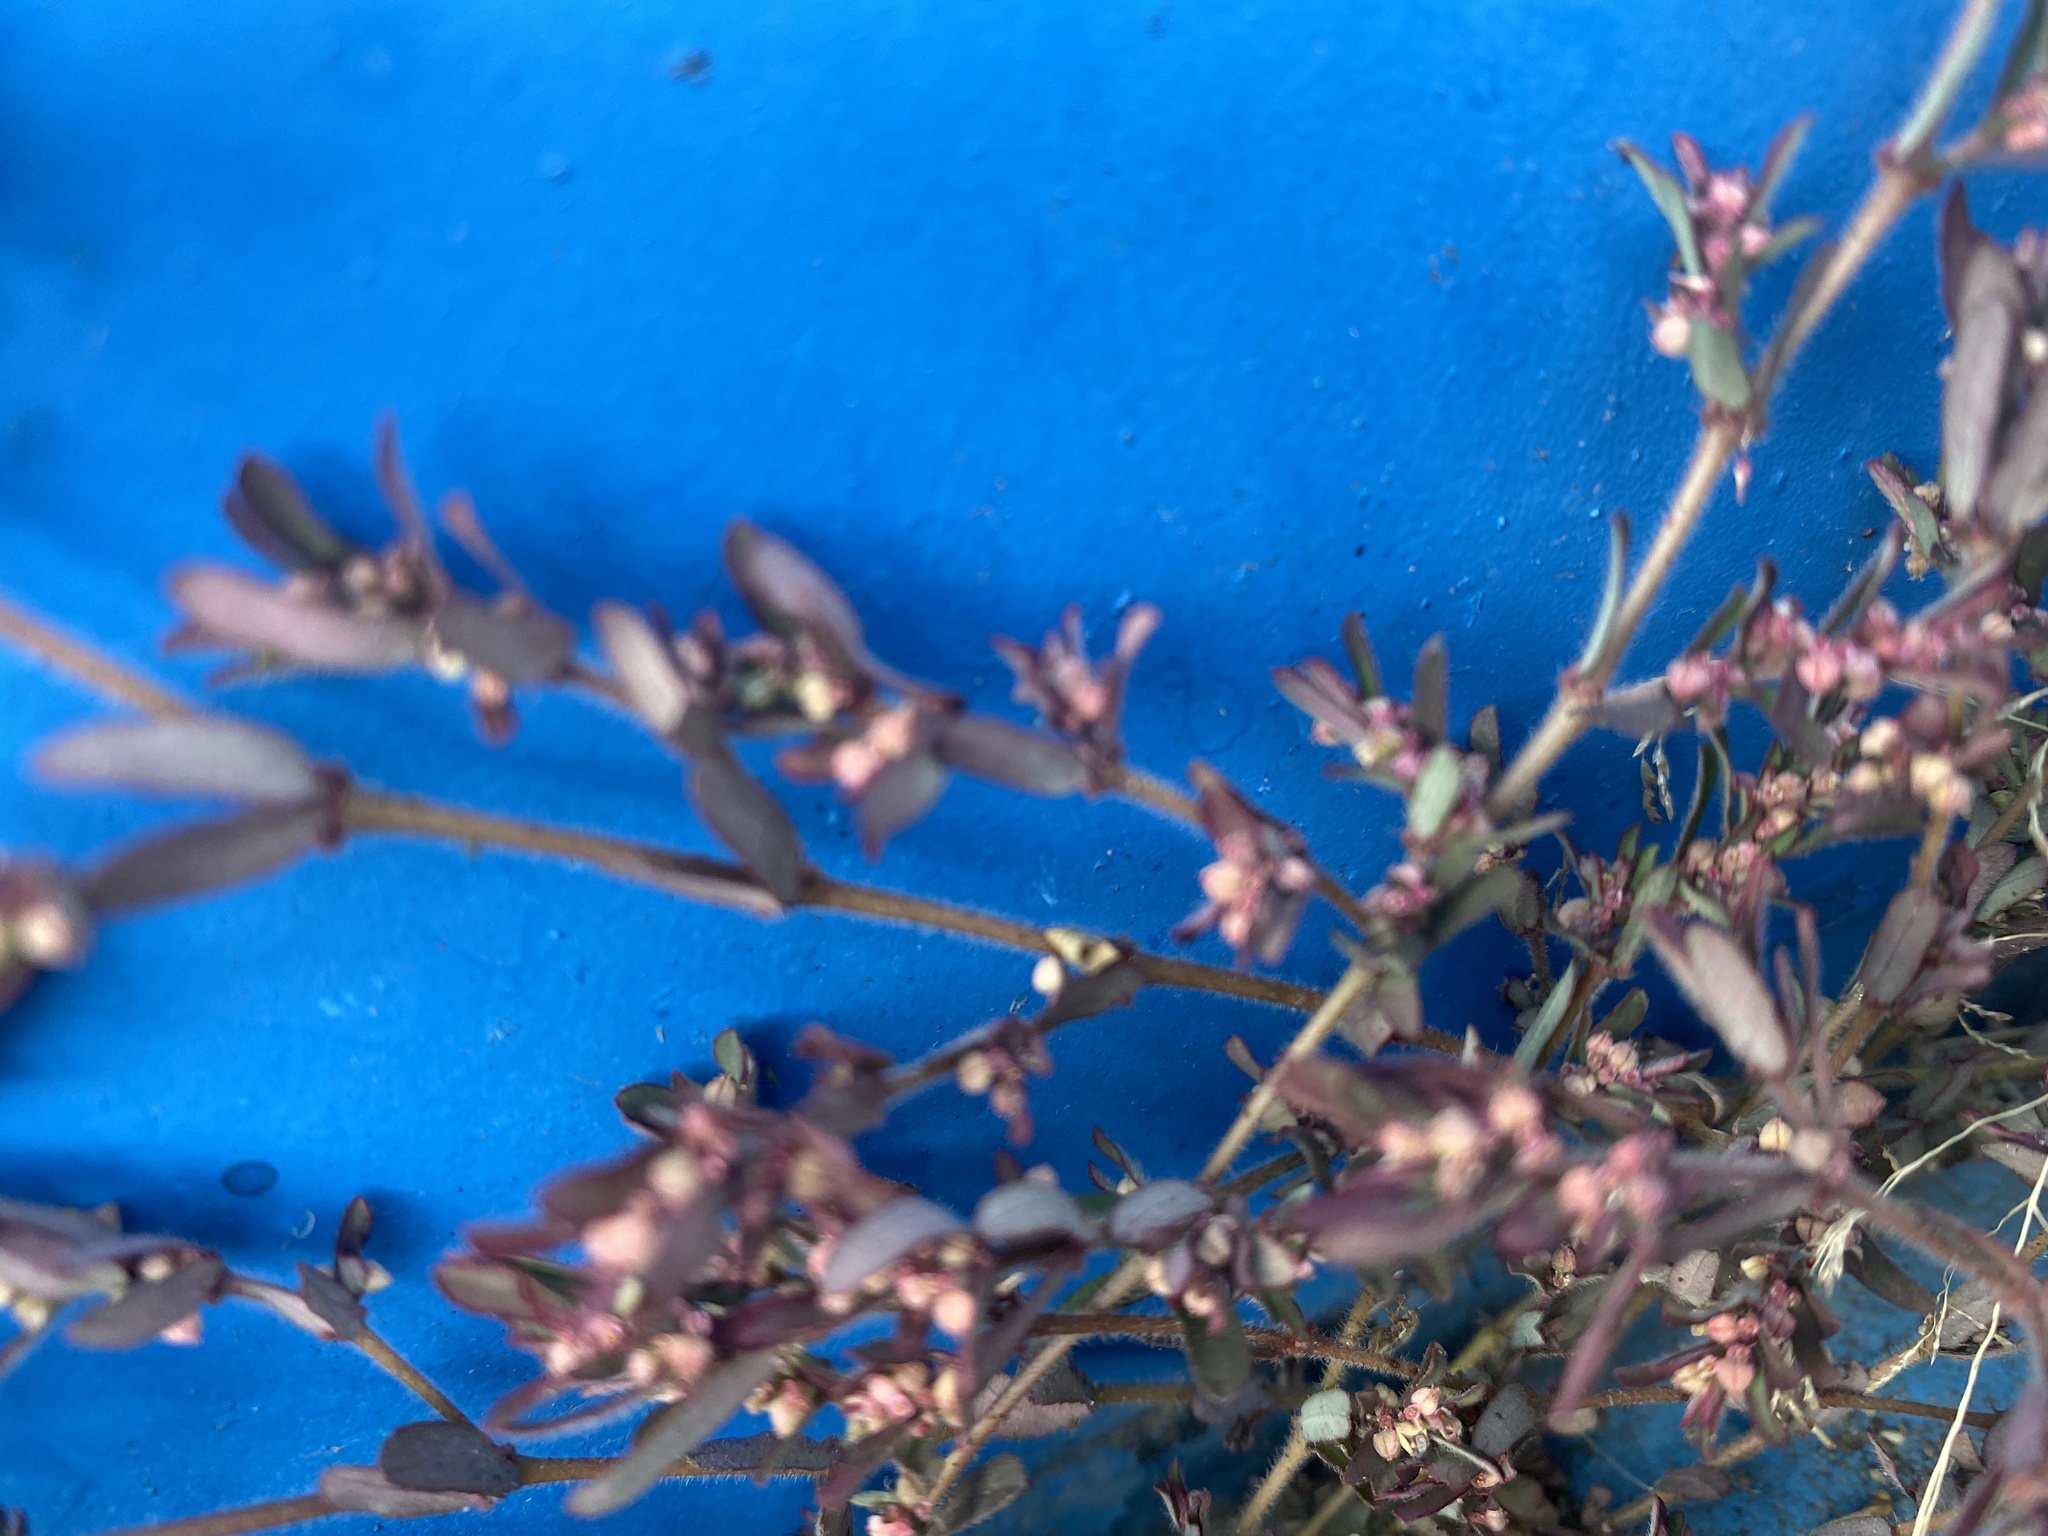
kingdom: Plantae
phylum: Tracheophyta
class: Magnoliopsida
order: Malpighiales
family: Euphorbiaceae
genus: Euphorbia
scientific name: Euphorbia maculata
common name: Spotted spurge
